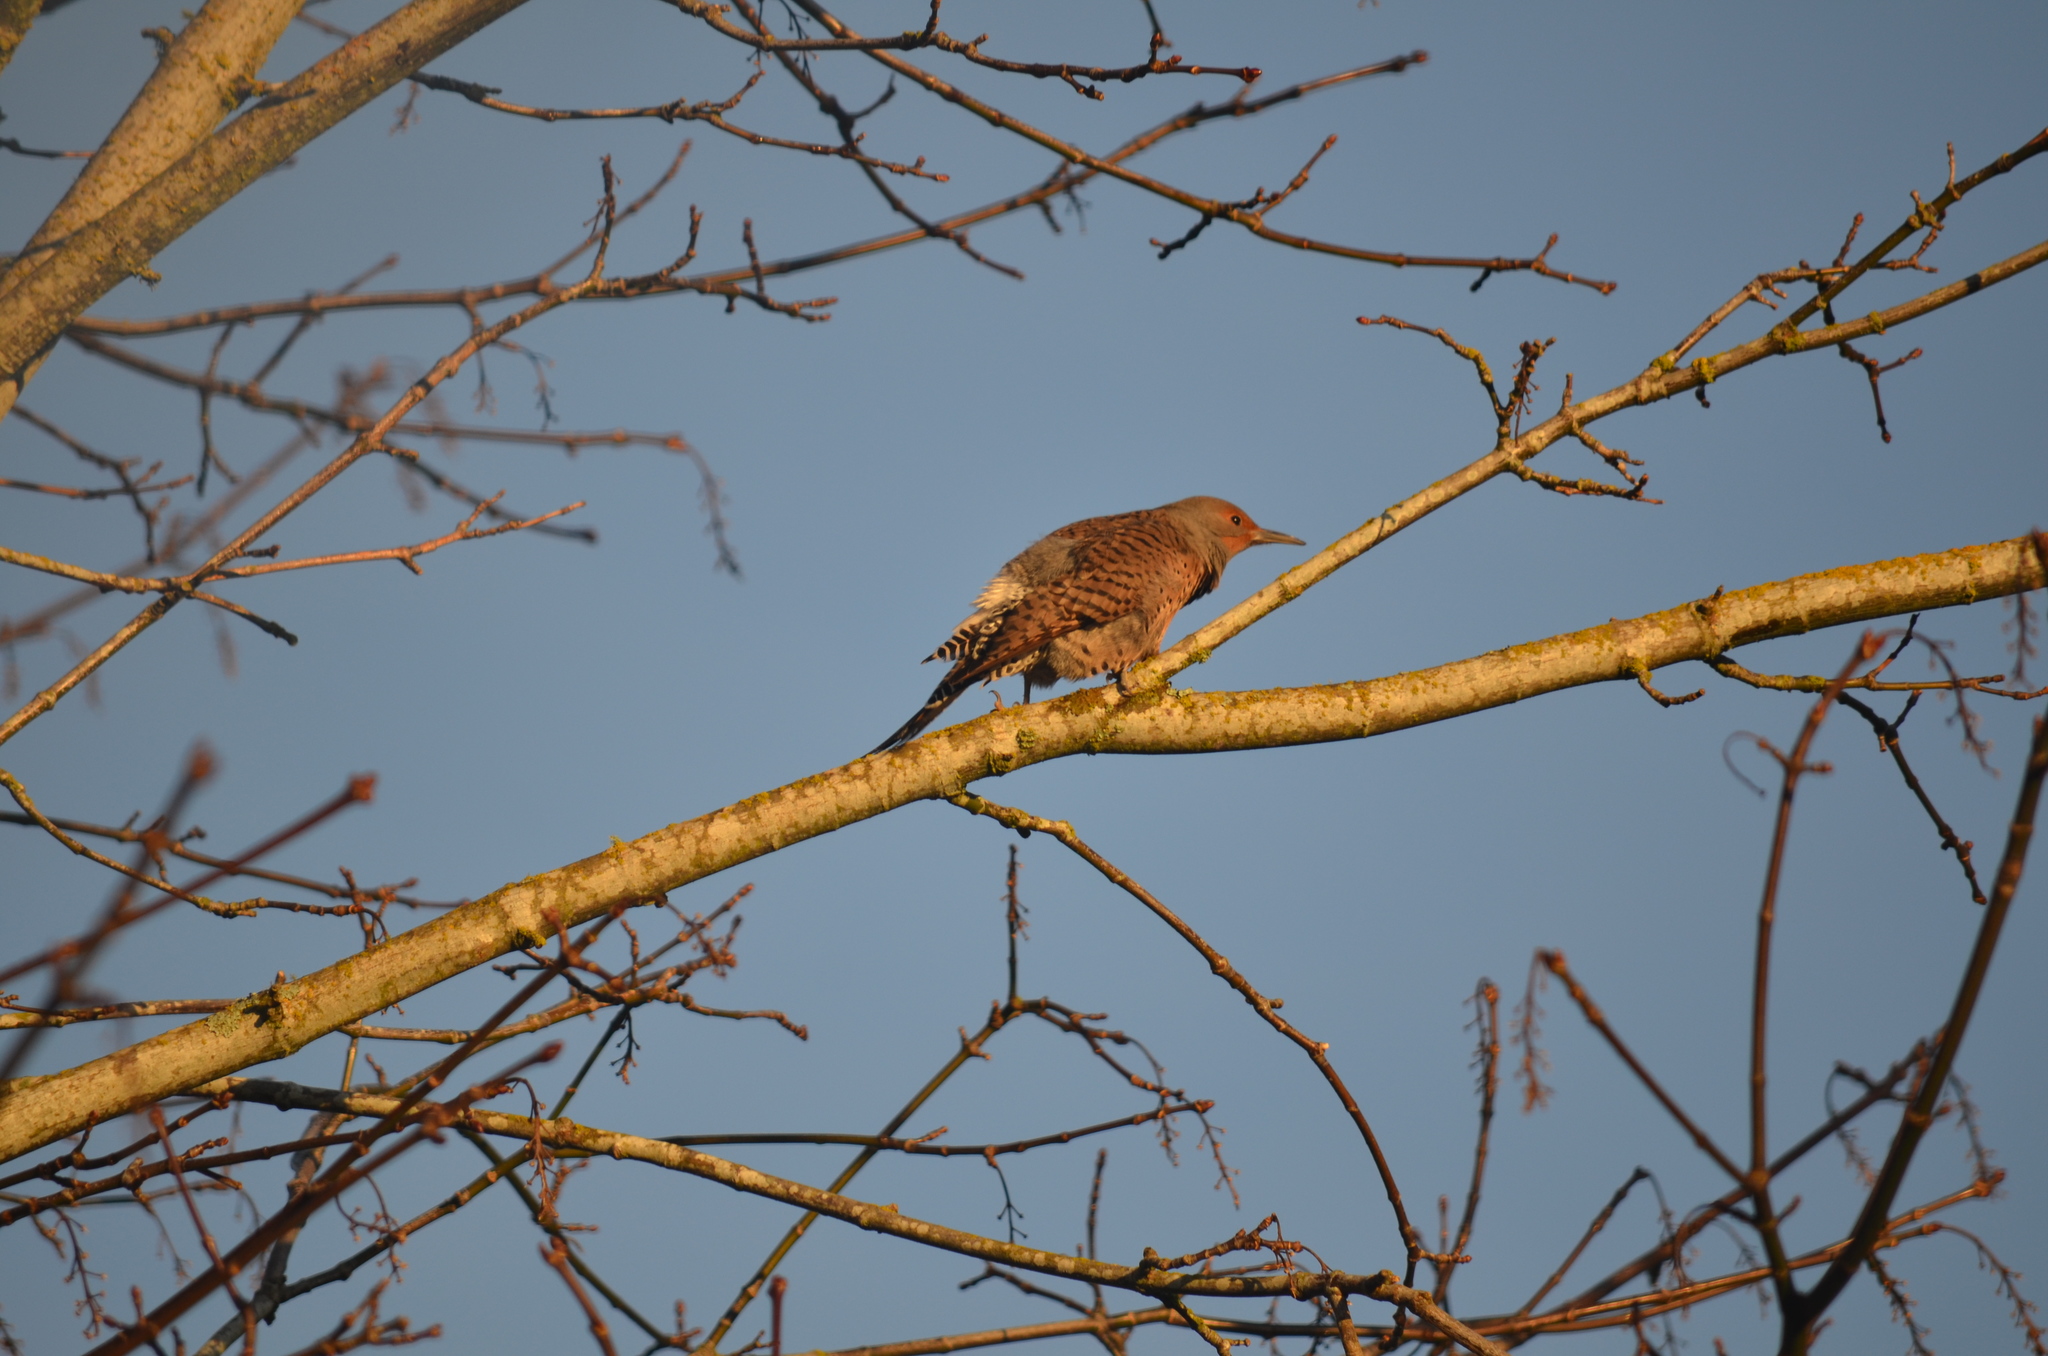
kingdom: Animalia
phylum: Chordata
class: Aves
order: Piciformes
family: Picidae
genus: Colaptes
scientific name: Colaptes auratus
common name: Northern flicker
